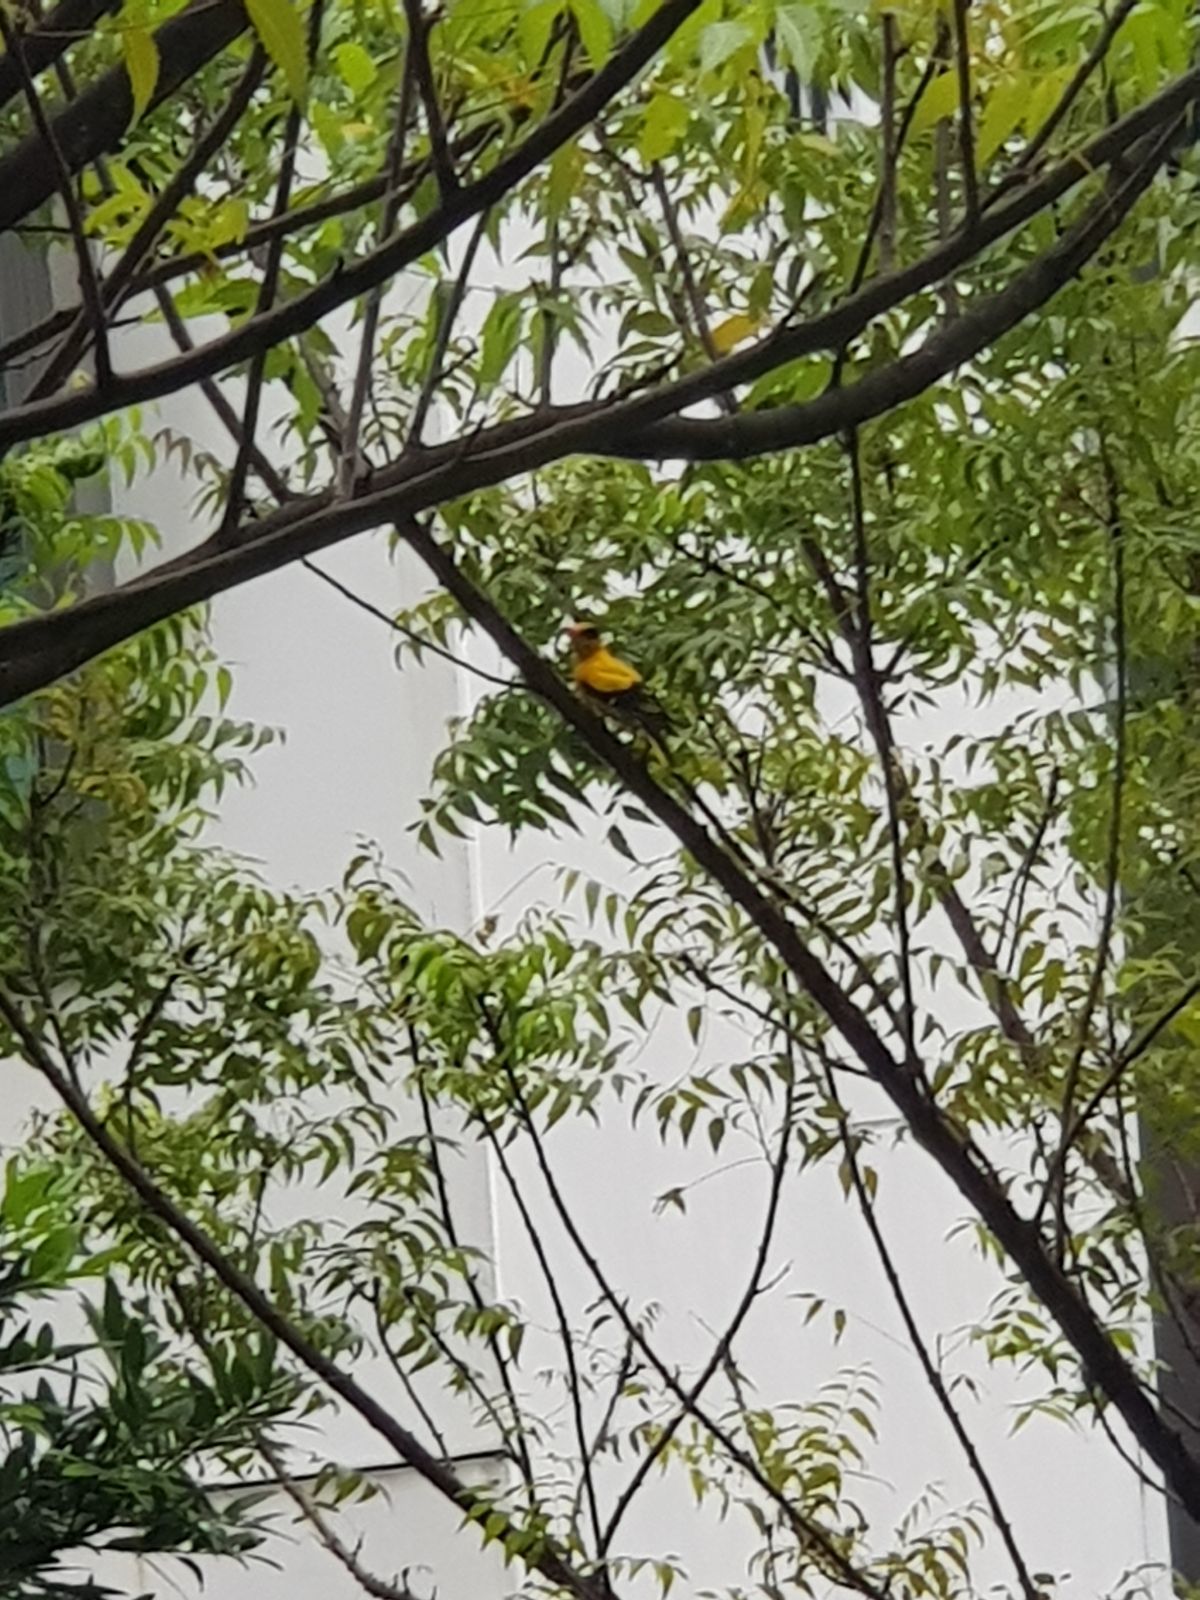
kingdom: Animalia
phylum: Chordata
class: Aves
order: Passeriformes
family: Oriolidae
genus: Oriolus
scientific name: Oriolus chinensis
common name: Black-naped oriole
